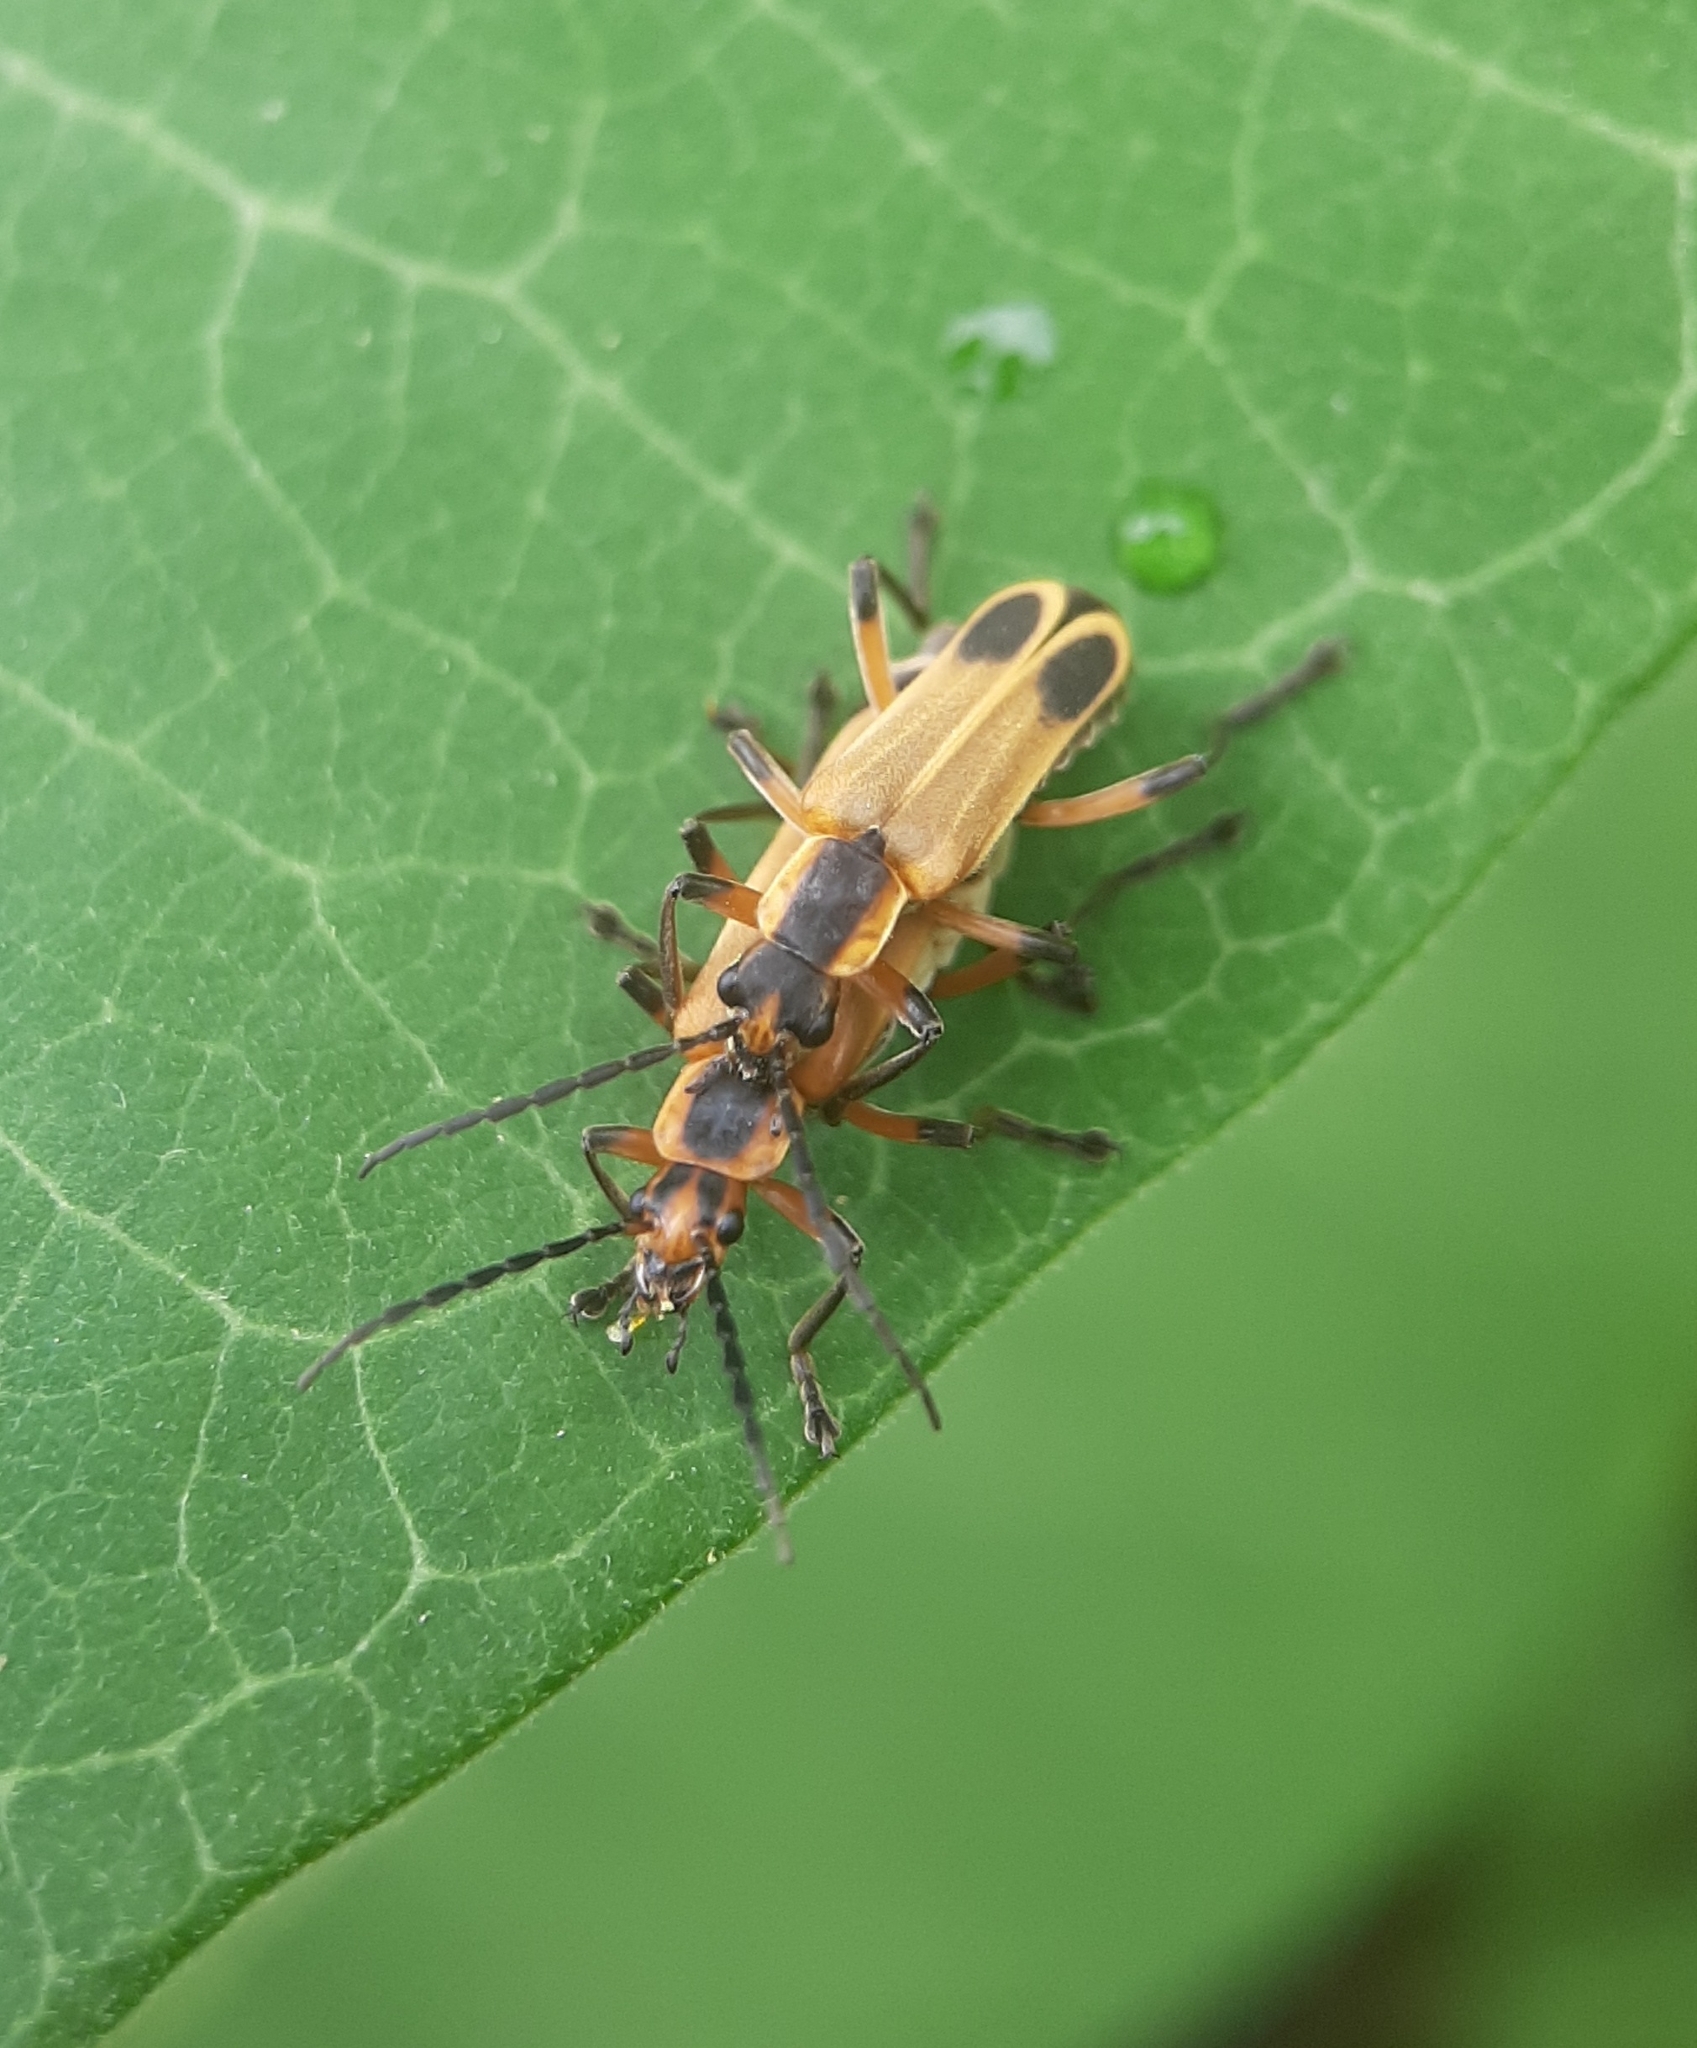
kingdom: Animalia
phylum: Arthropoda
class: Insecta
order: Coleoptera
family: Cantharidae
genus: Chauliognathus
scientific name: Chauliognathus marginatus
